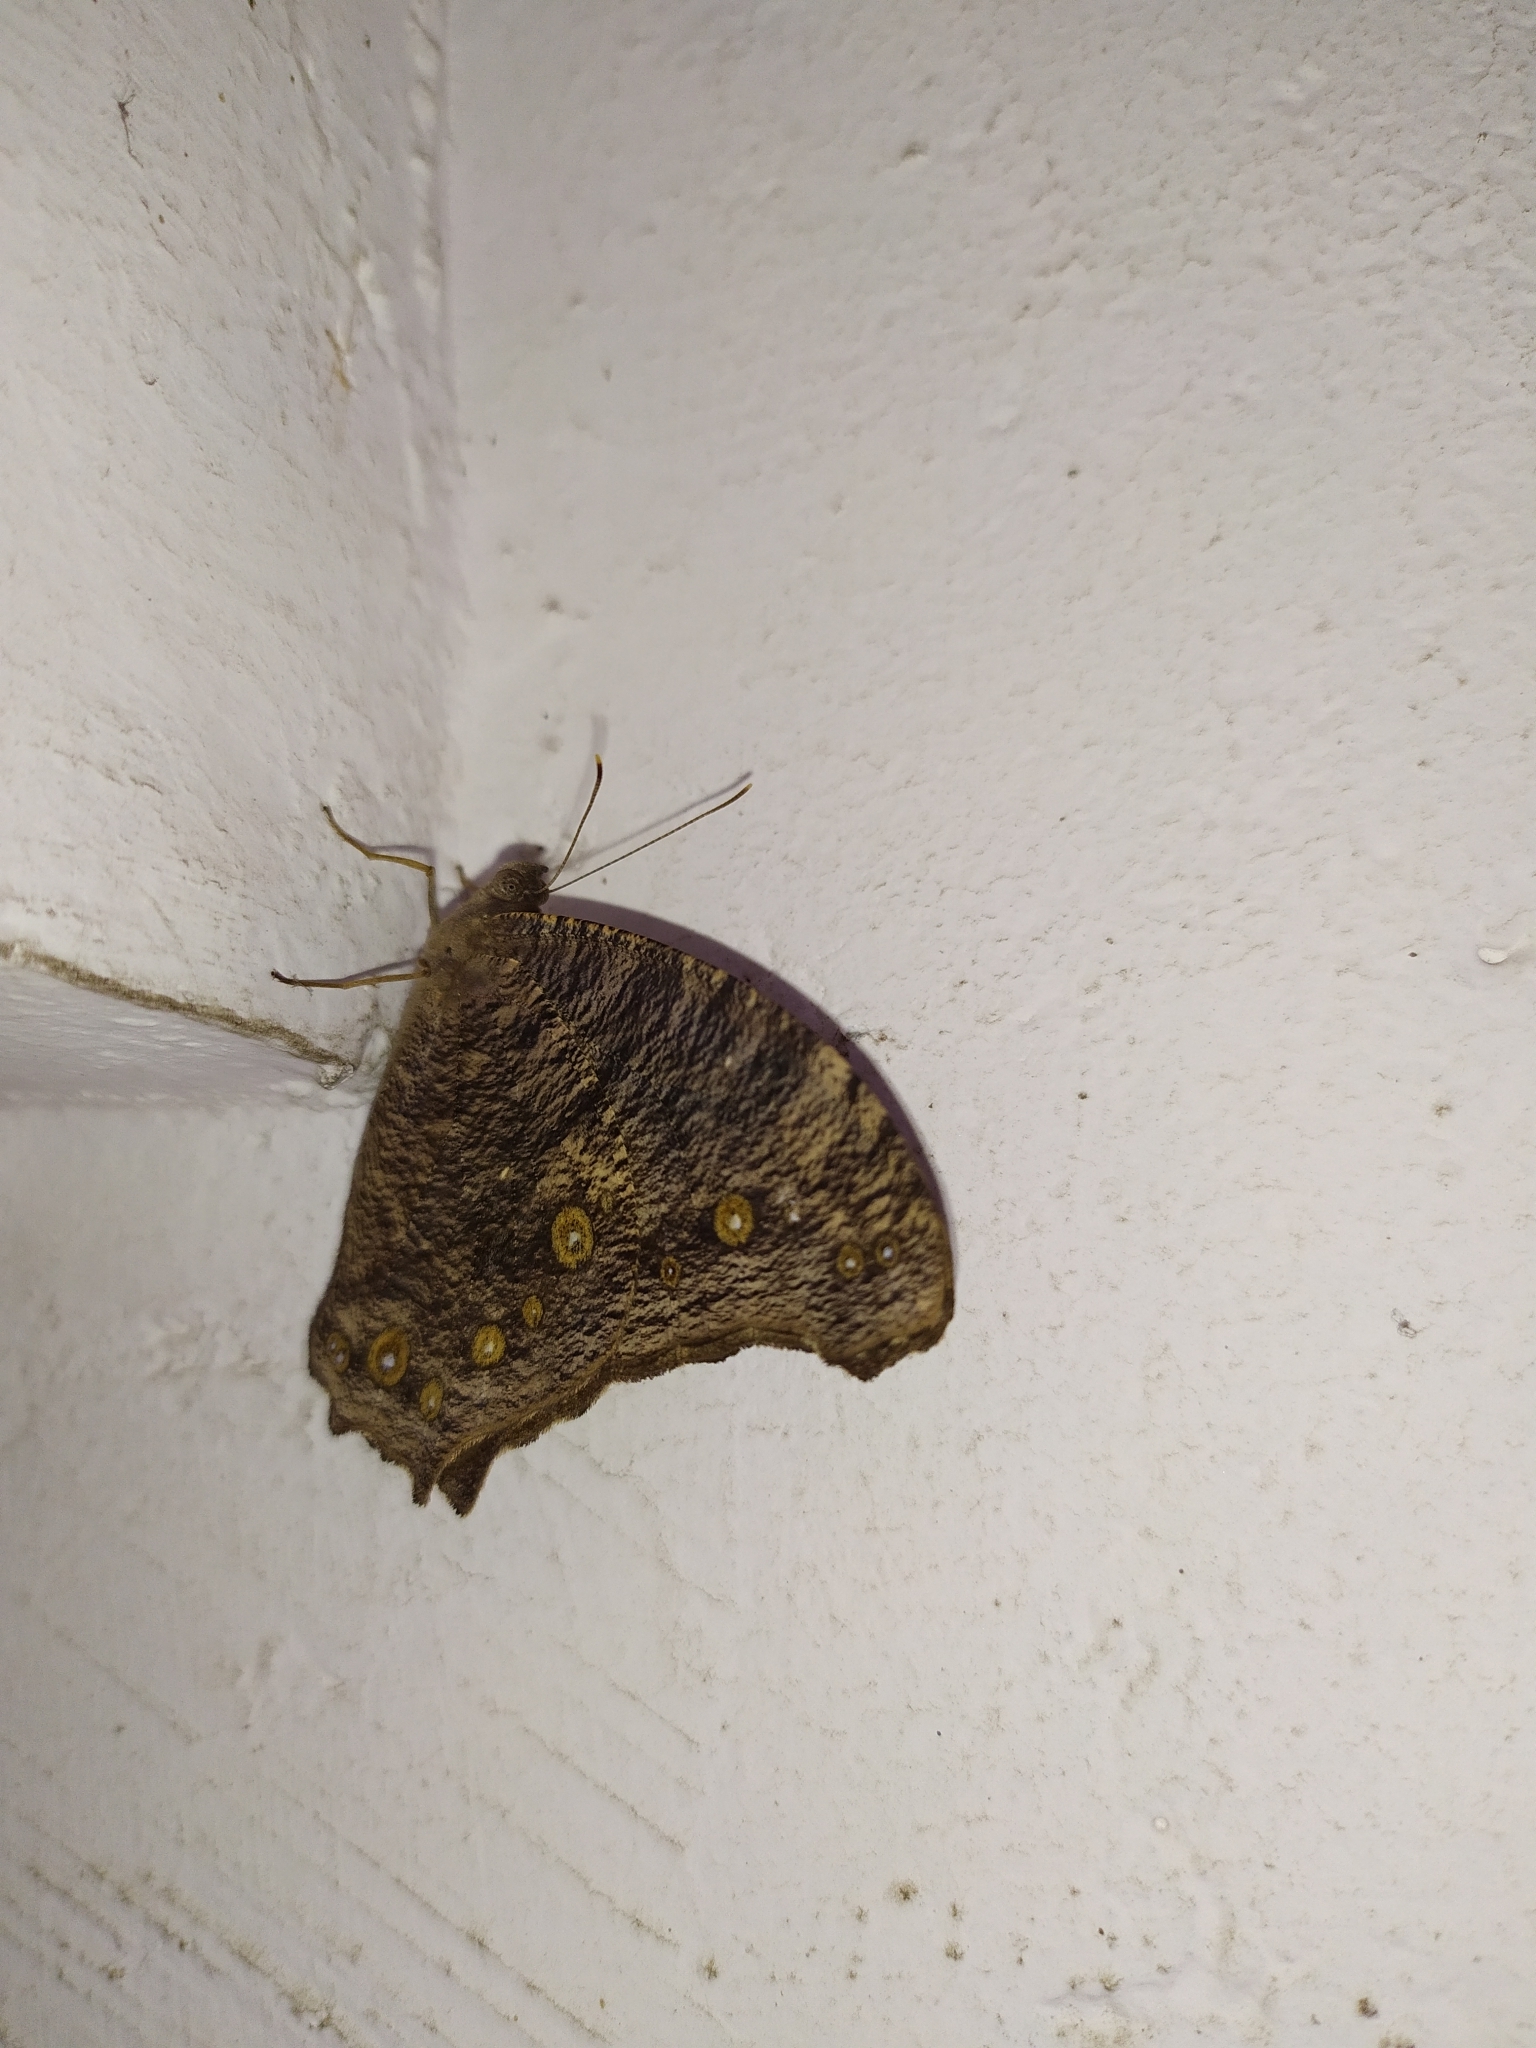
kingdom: Animalia
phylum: Arthropoda
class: Insecta
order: Lepidoptera
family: Nymphalidae
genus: Melanitis
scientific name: Melanitis leda
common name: Twilight brown
